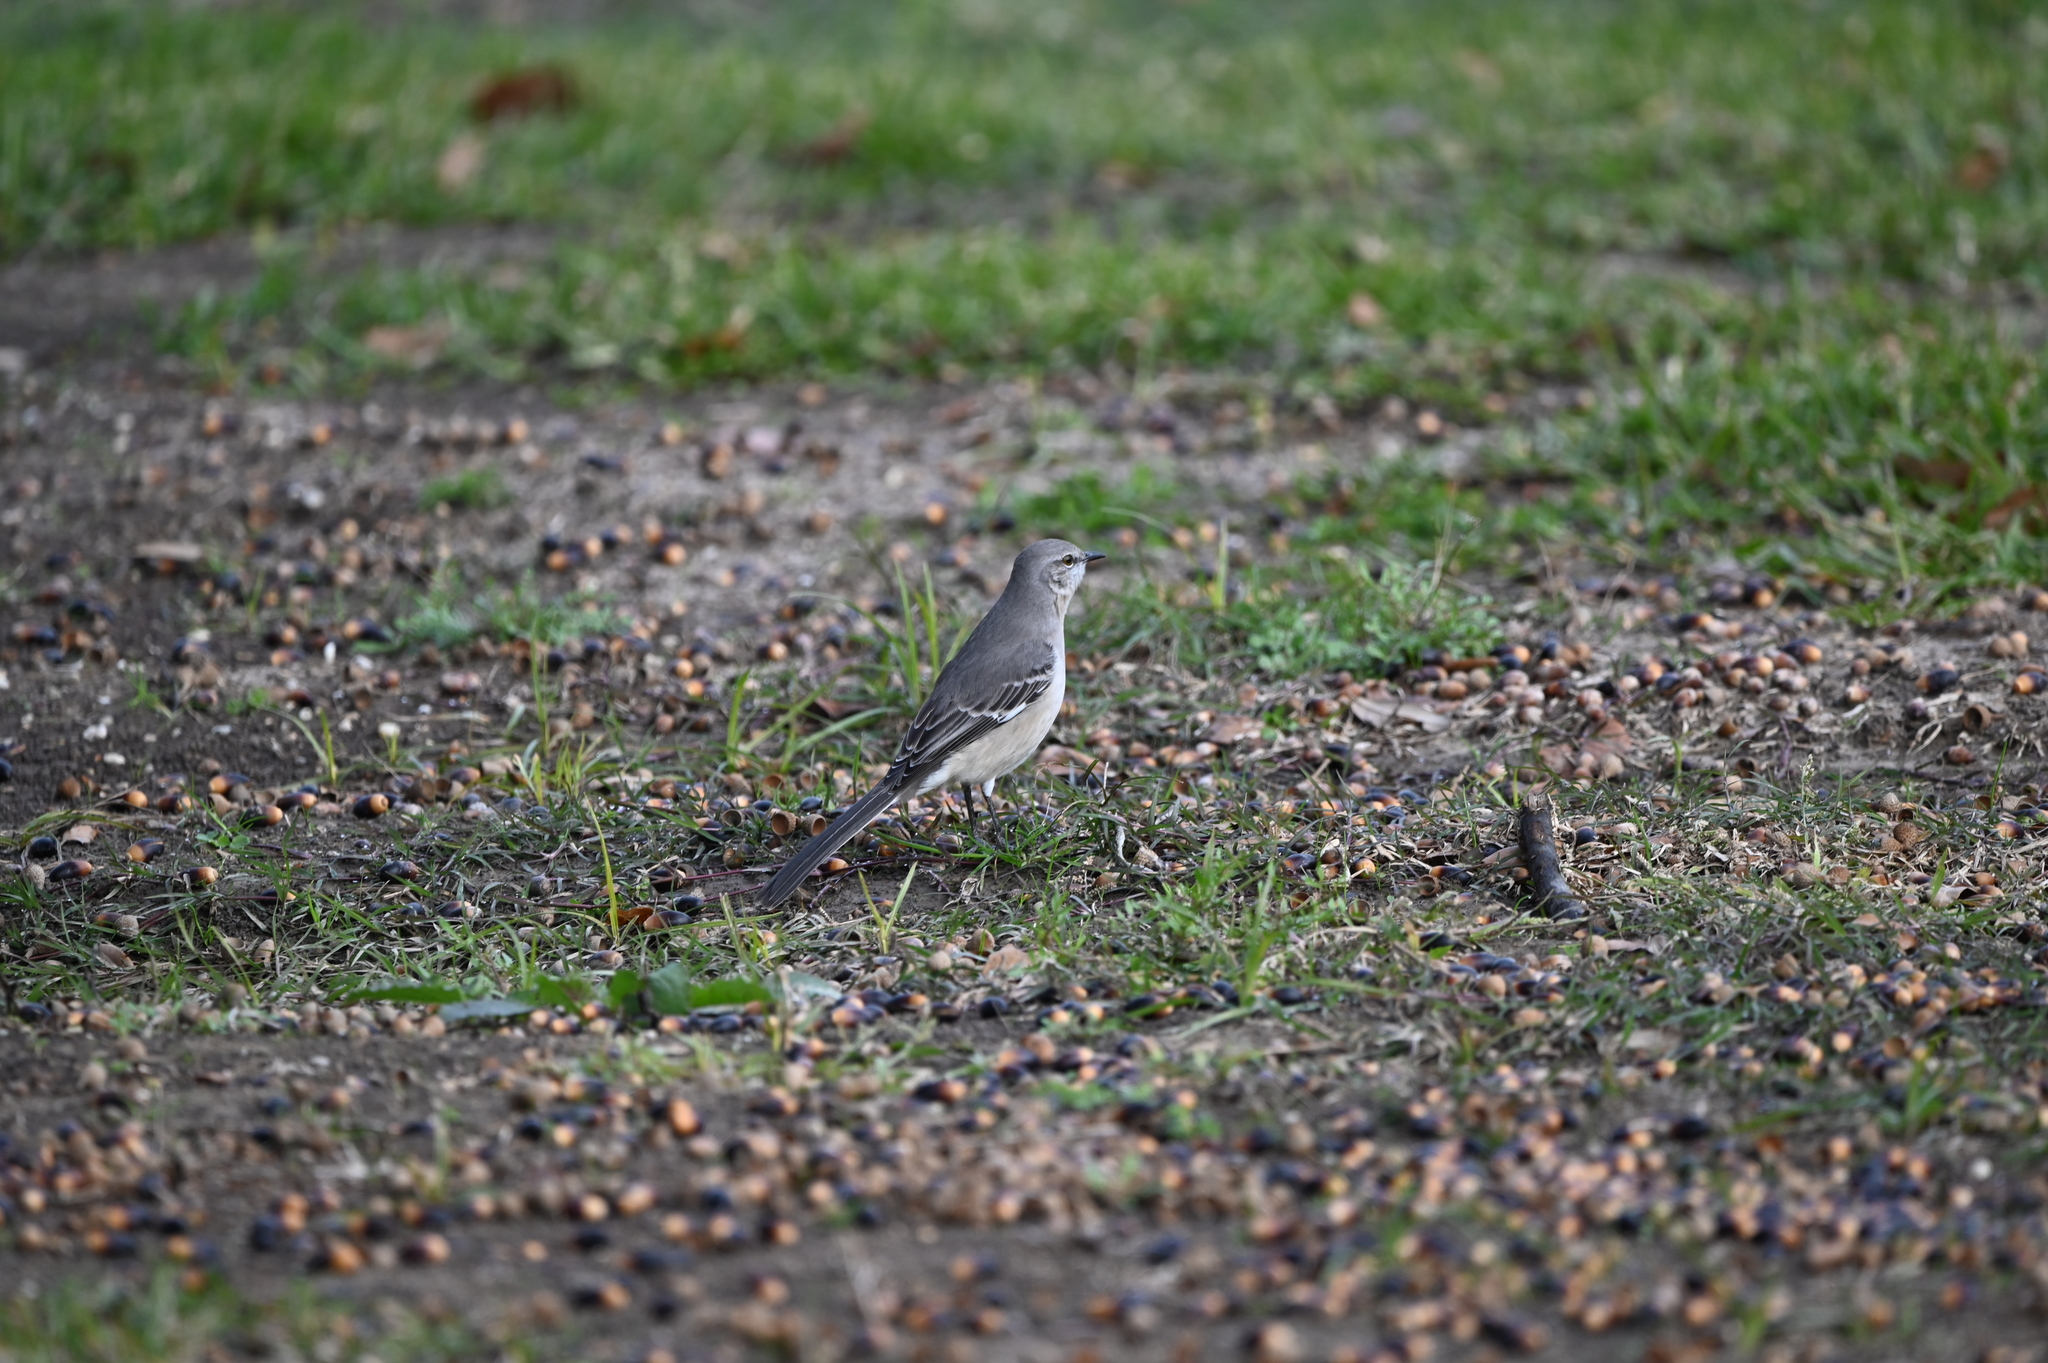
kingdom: Animalia
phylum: Chordata
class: Aves
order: Passeriformes
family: Mimidae
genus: Mimus
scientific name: Mimus polyglottos
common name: Northern mockingbird
